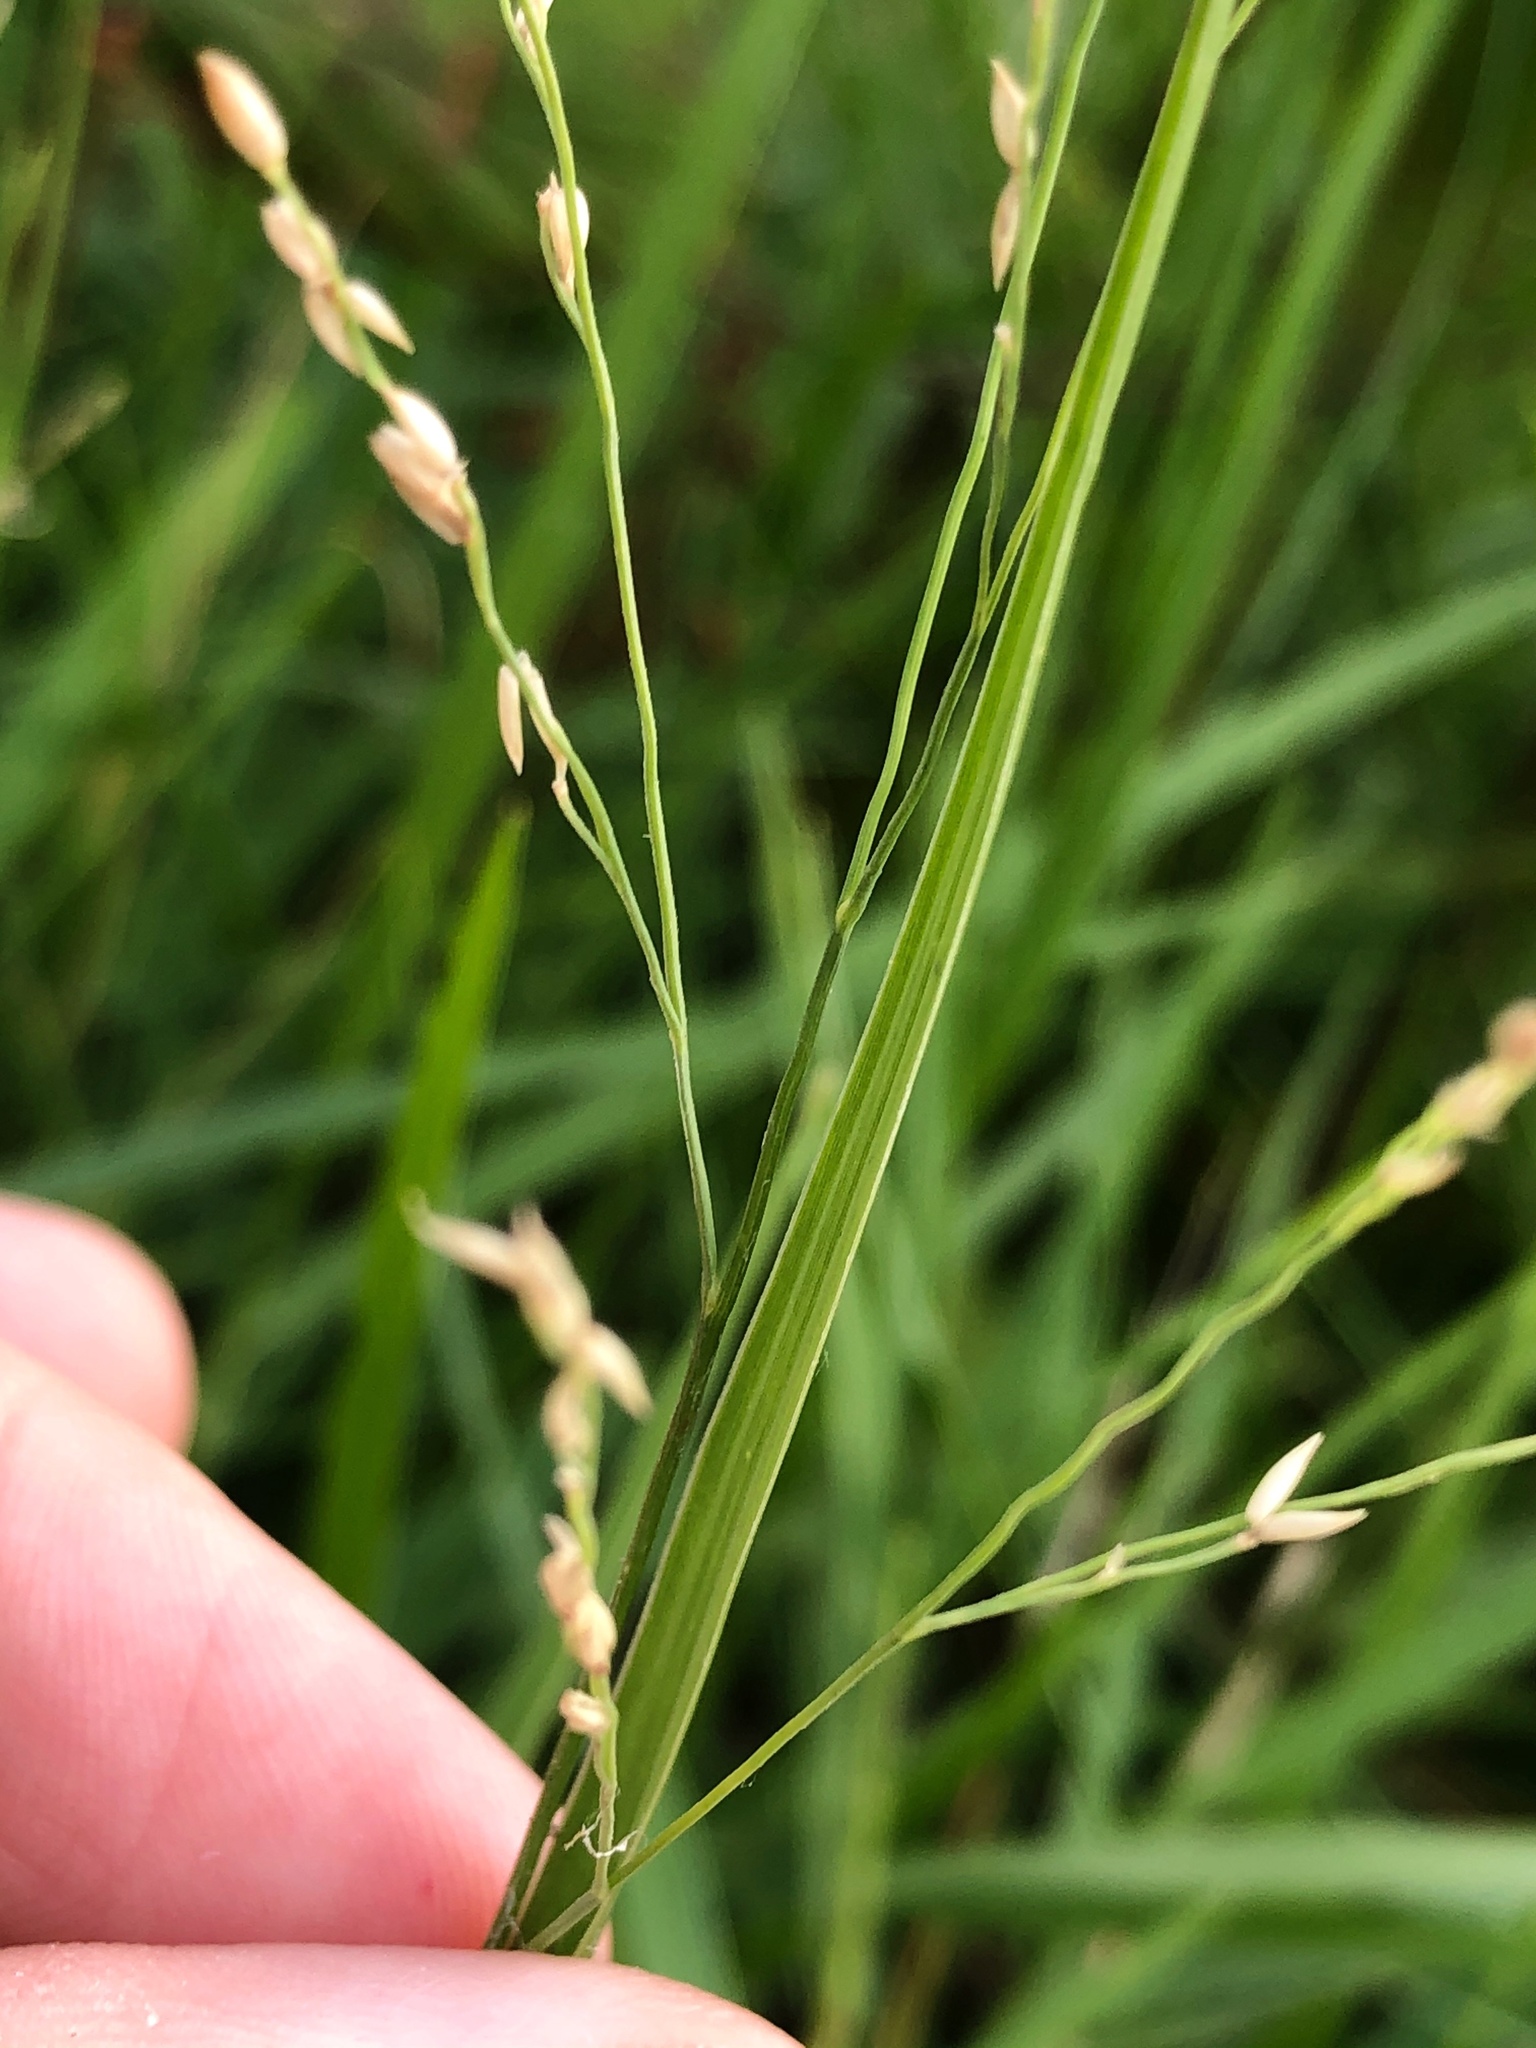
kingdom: Plantae
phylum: Tracheophyta
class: Liliopsida
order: Poales
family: Poaceae
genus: Panicum
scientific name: Panicum repens
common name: Torpedo grass
